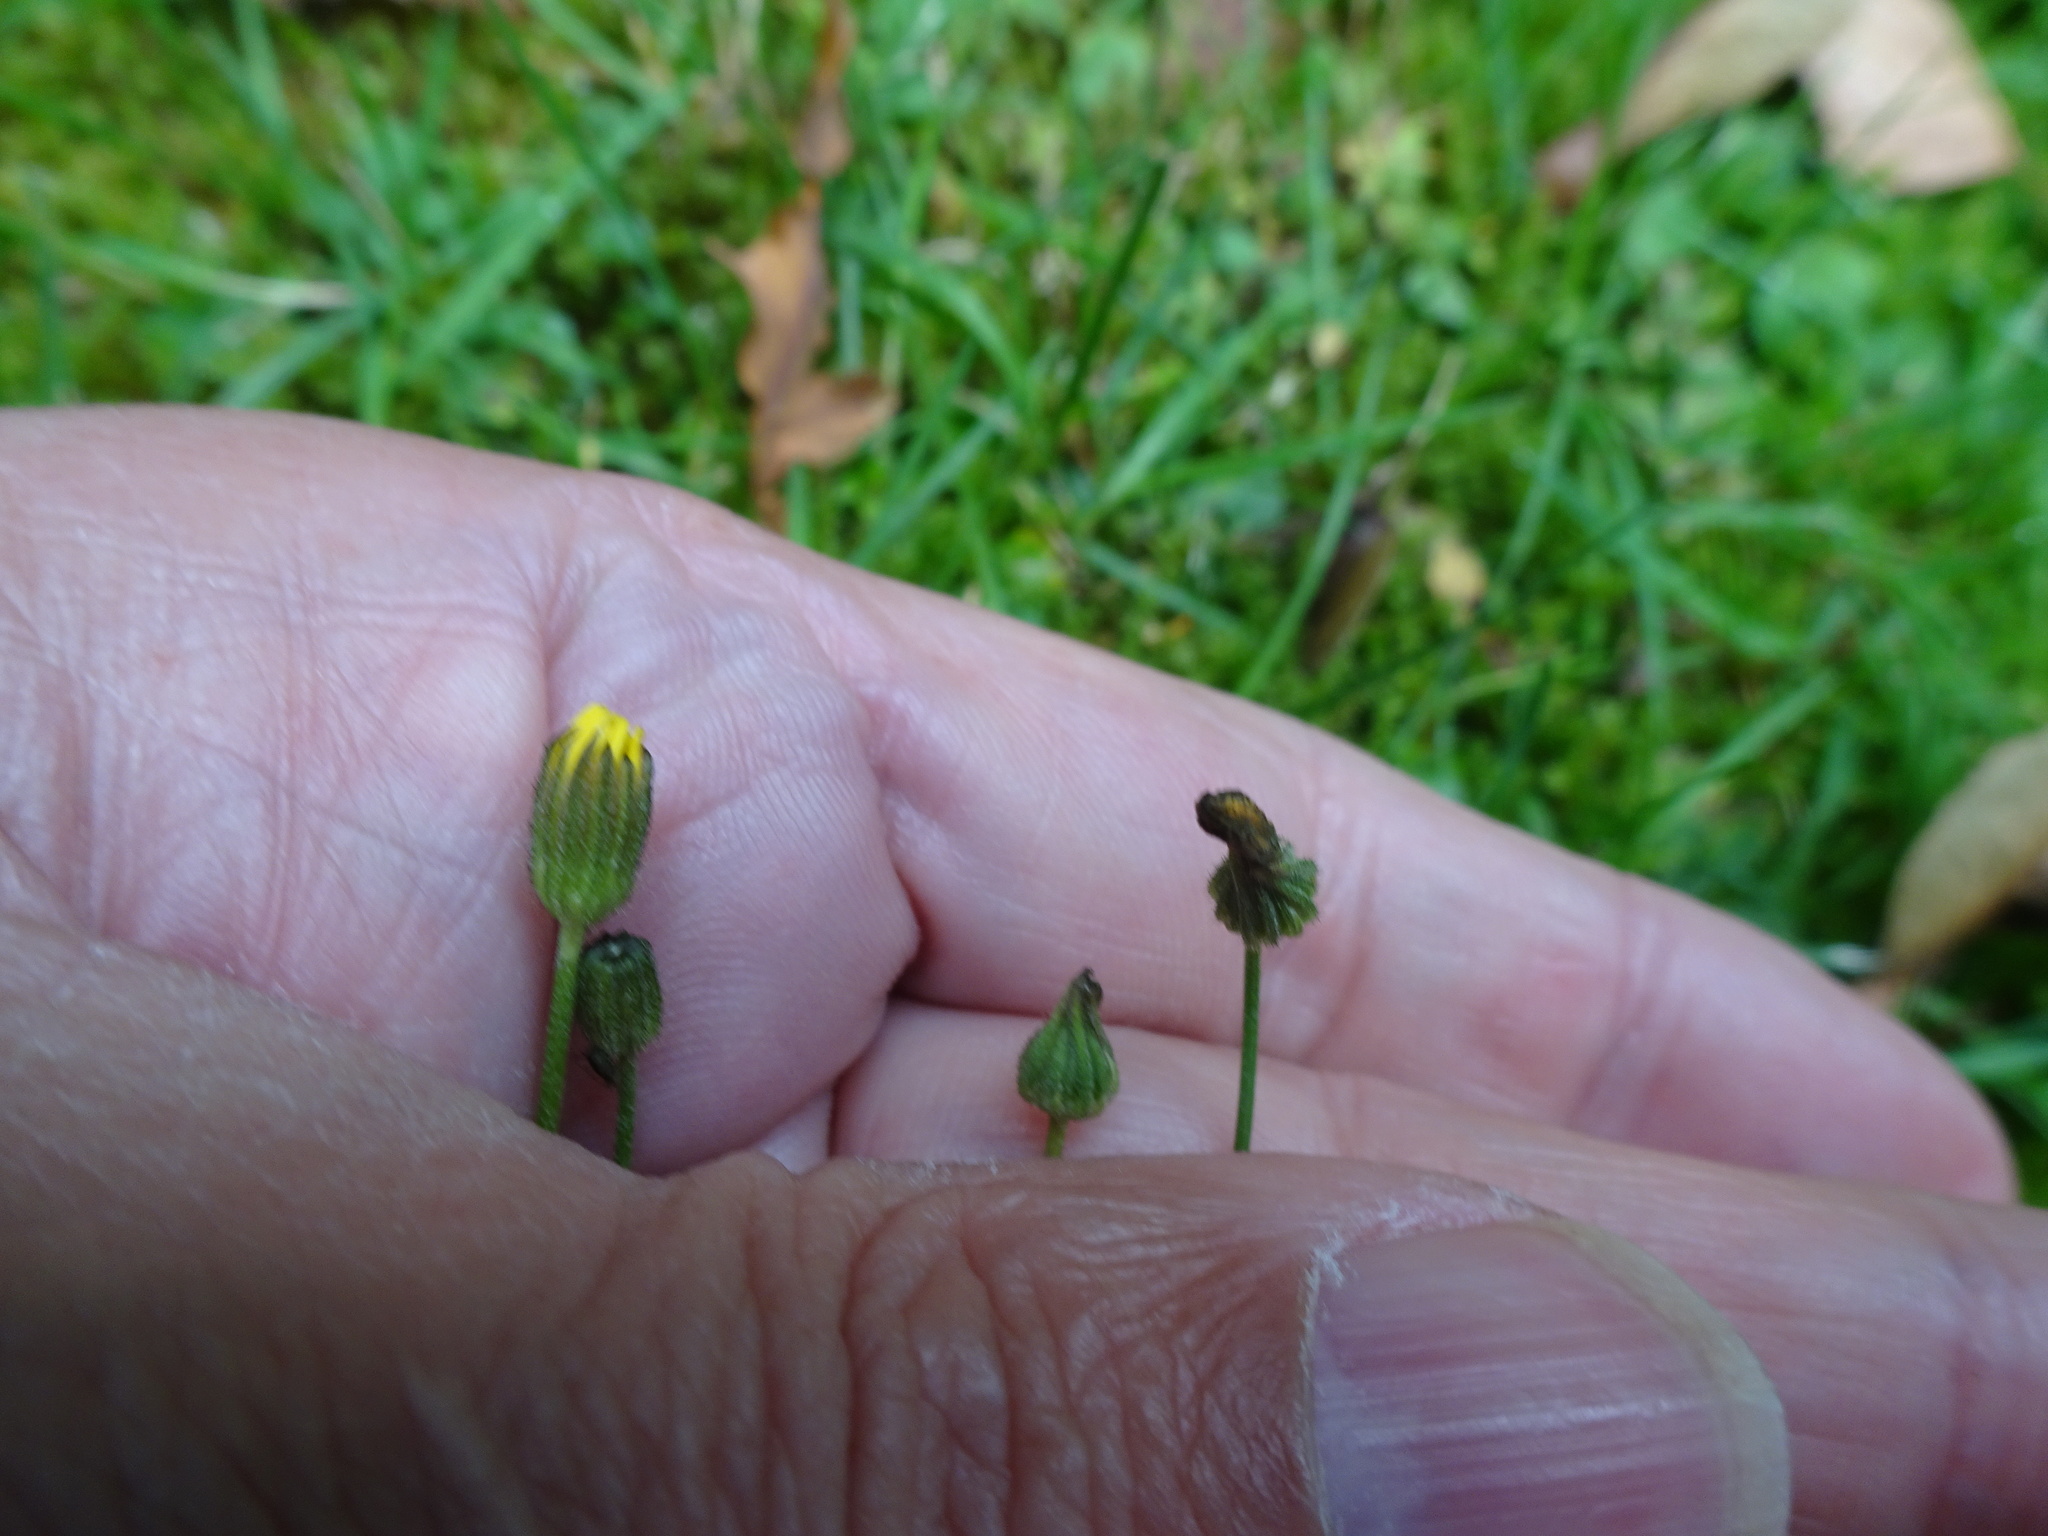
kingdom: Plantae
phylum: Tracheophyta
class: Magnoliopsida
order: Asterales
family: Asteraceae
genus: Crepis
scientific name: Crepis capillaris
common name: Smooth hawksbeard
